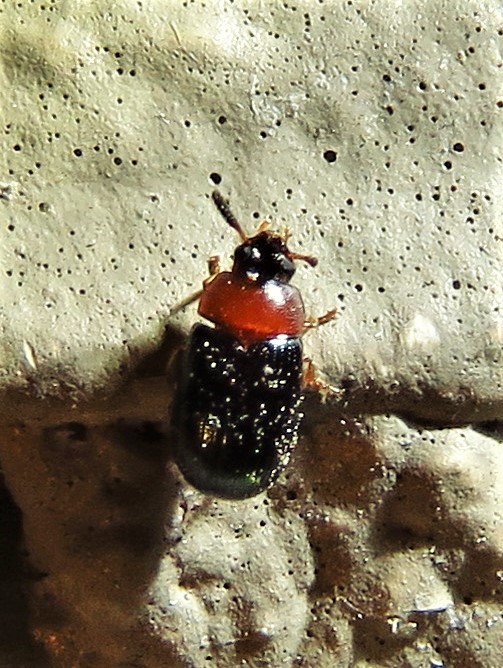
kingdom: Animalia
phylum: Arthropoda
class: Insecta
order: Coleoptera
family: Tenebrionidae
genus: Neomida
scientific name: Neomida bicornis
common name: Two-horned darkling beetle
